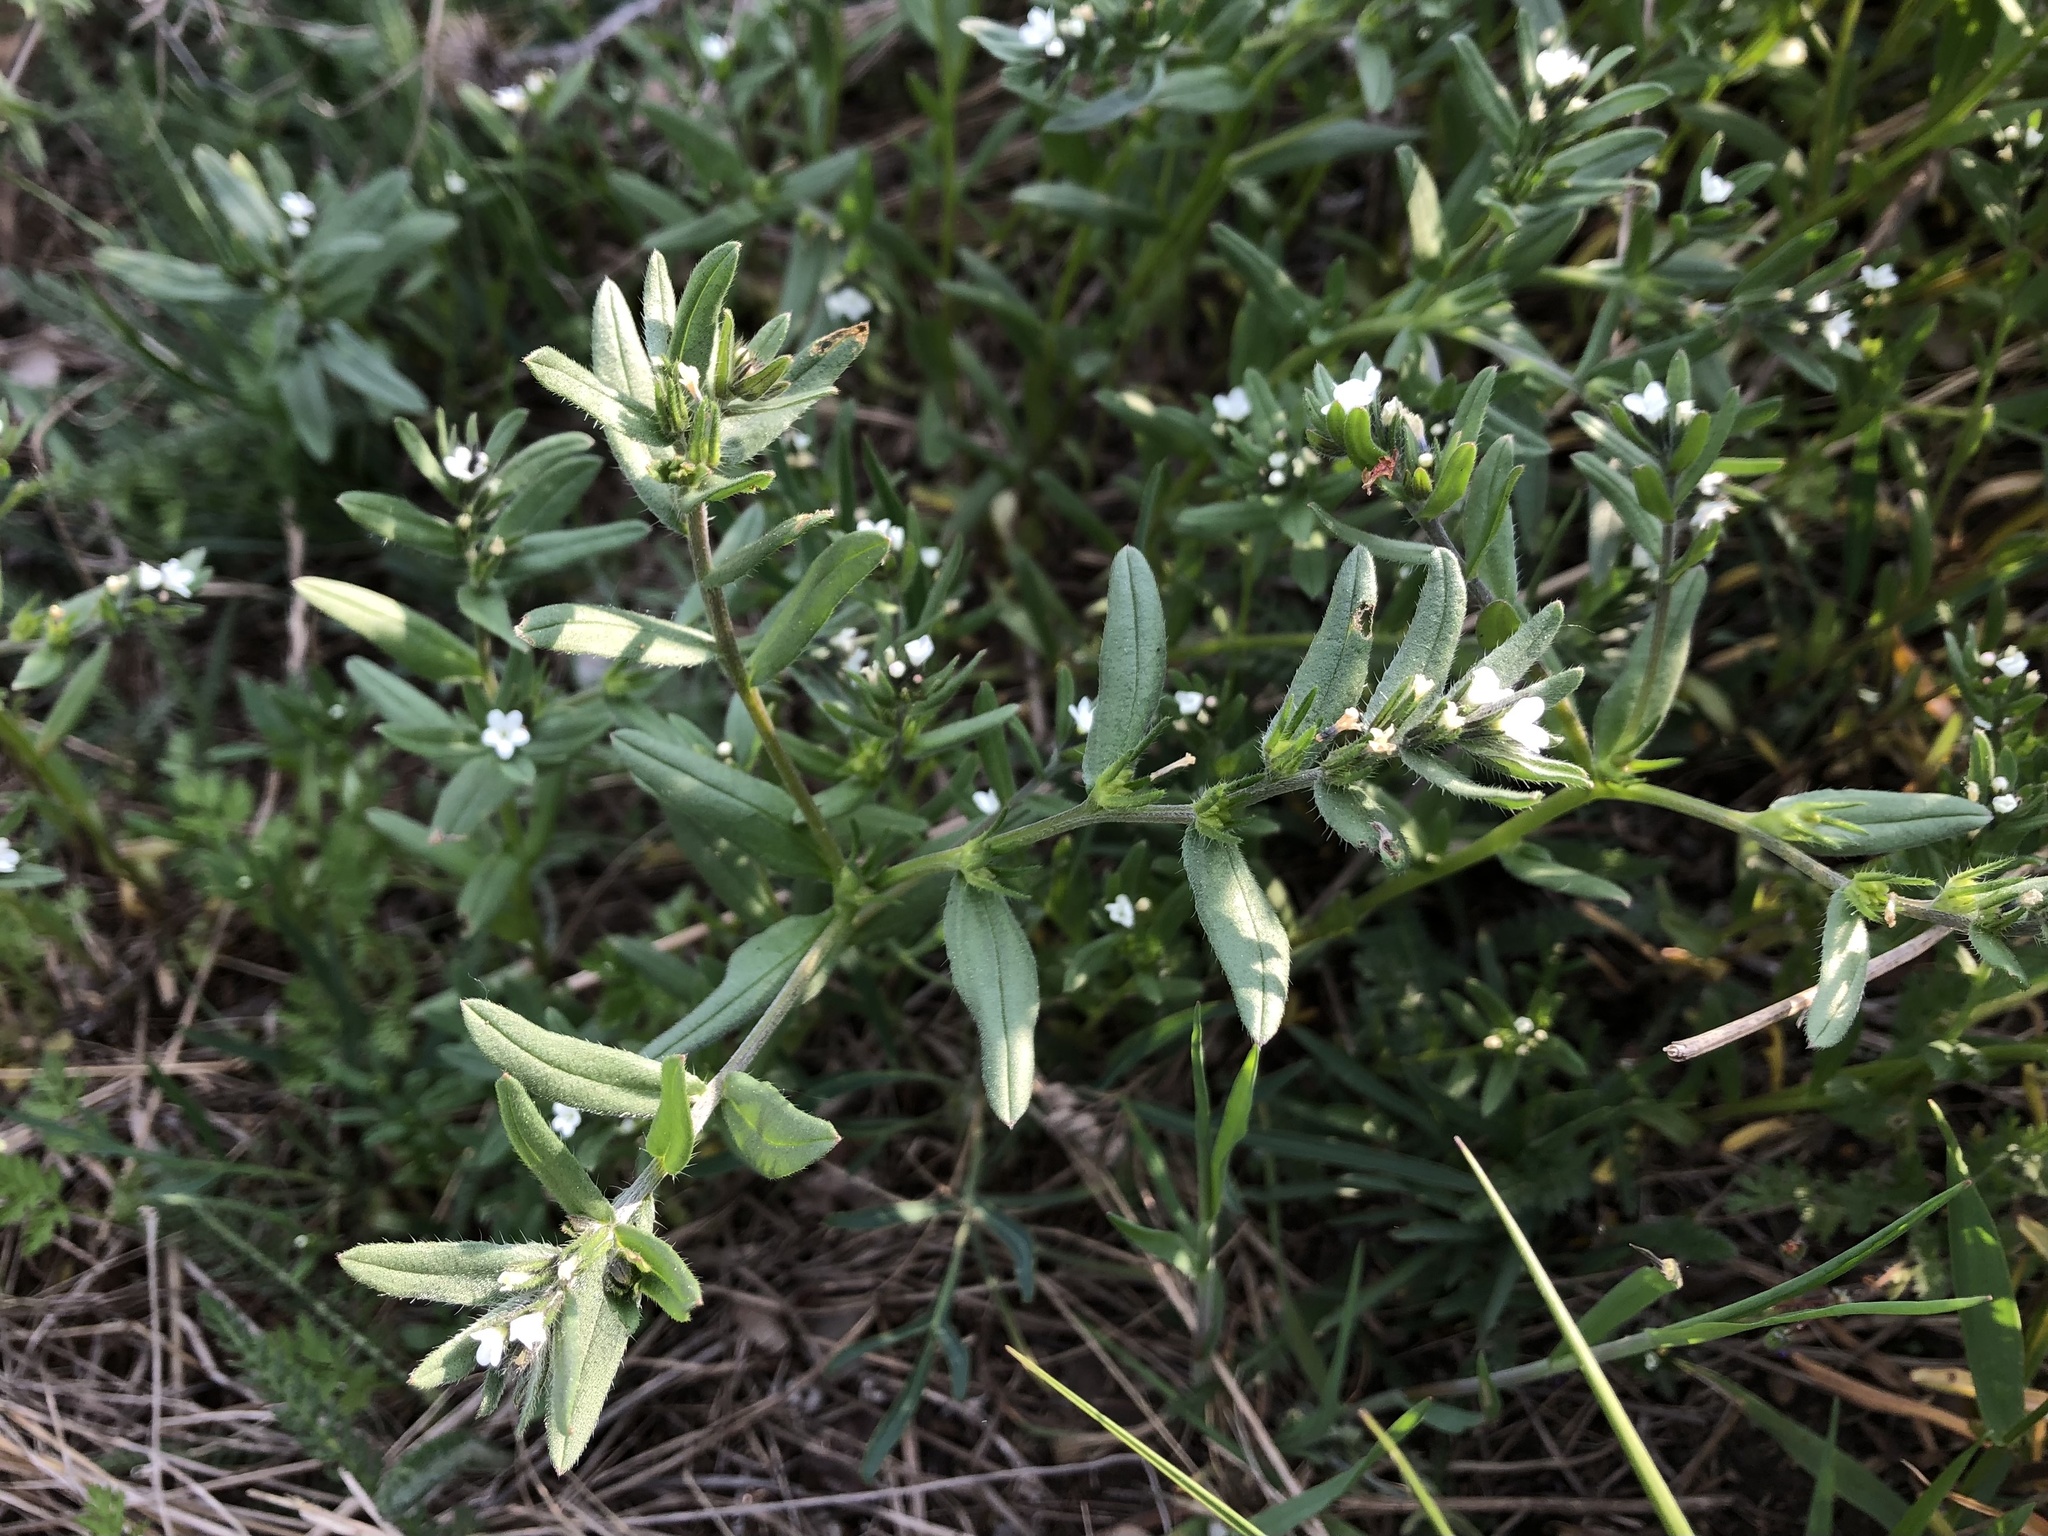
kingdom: Plantae
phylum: Tracheophyta
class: Magnoliopsida
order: Boraginales
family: Boraginaceae
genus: Buglossoides
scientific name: Buglossoides arvensis
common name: Corn gromwell
